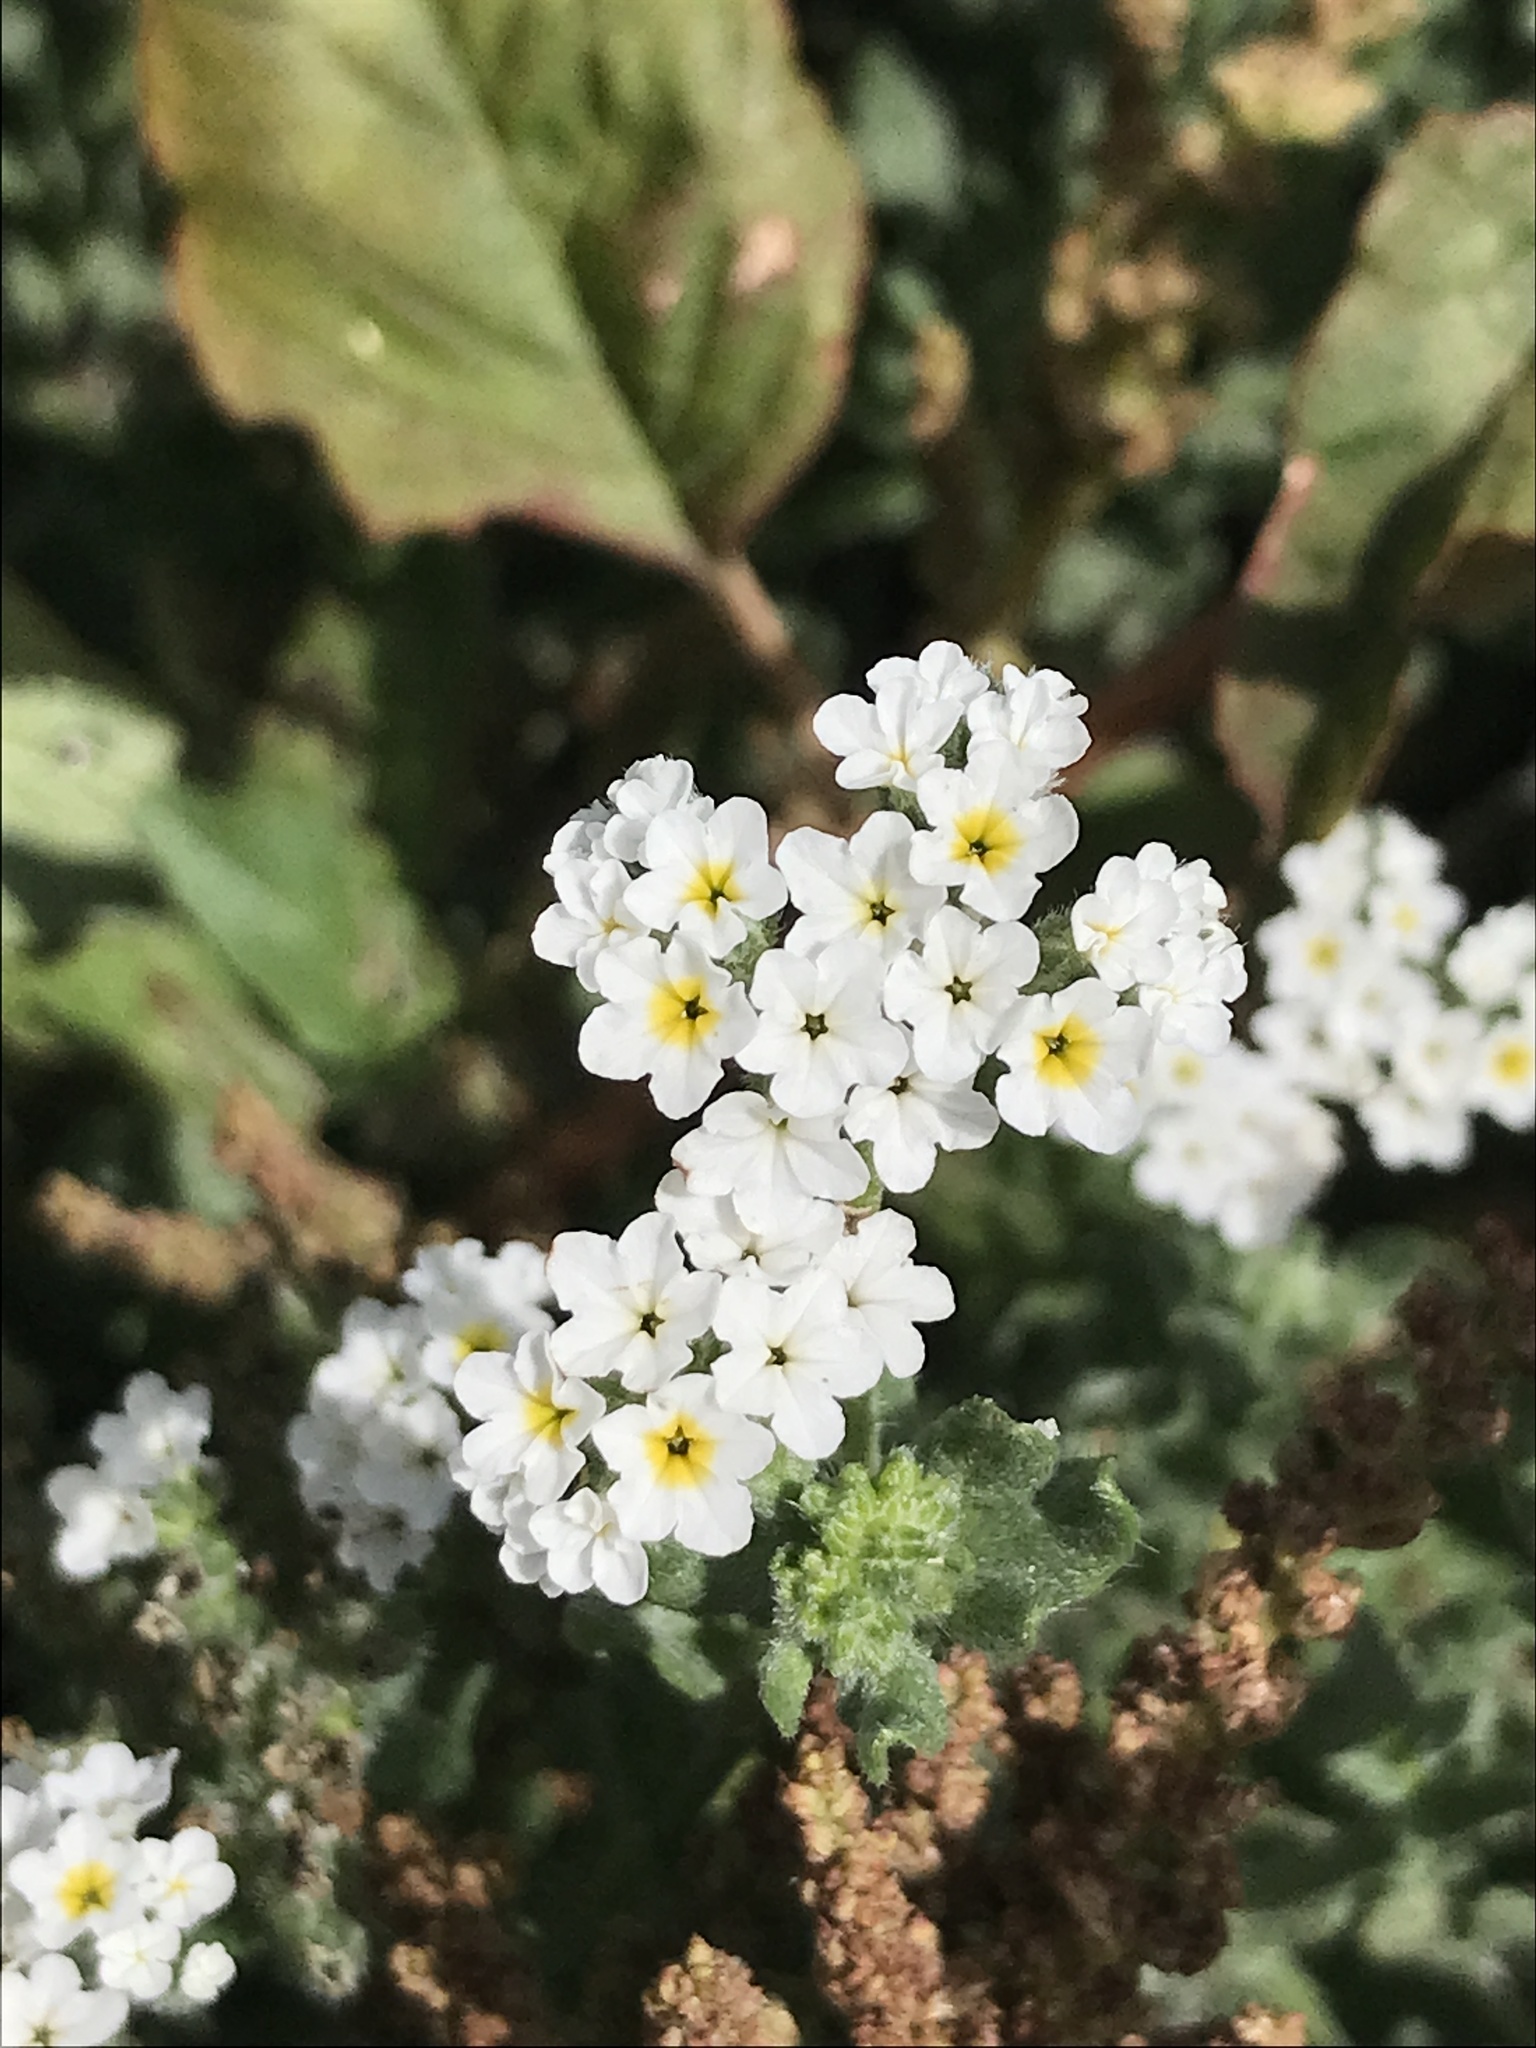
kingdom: Plantae
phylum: Tracheophyta
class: Magnoliopsida
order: Boraginales
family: Heliotropiaceae
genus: Heliotropium
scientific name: Heliotropium ramosissimum
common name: Wavy heliotrope
